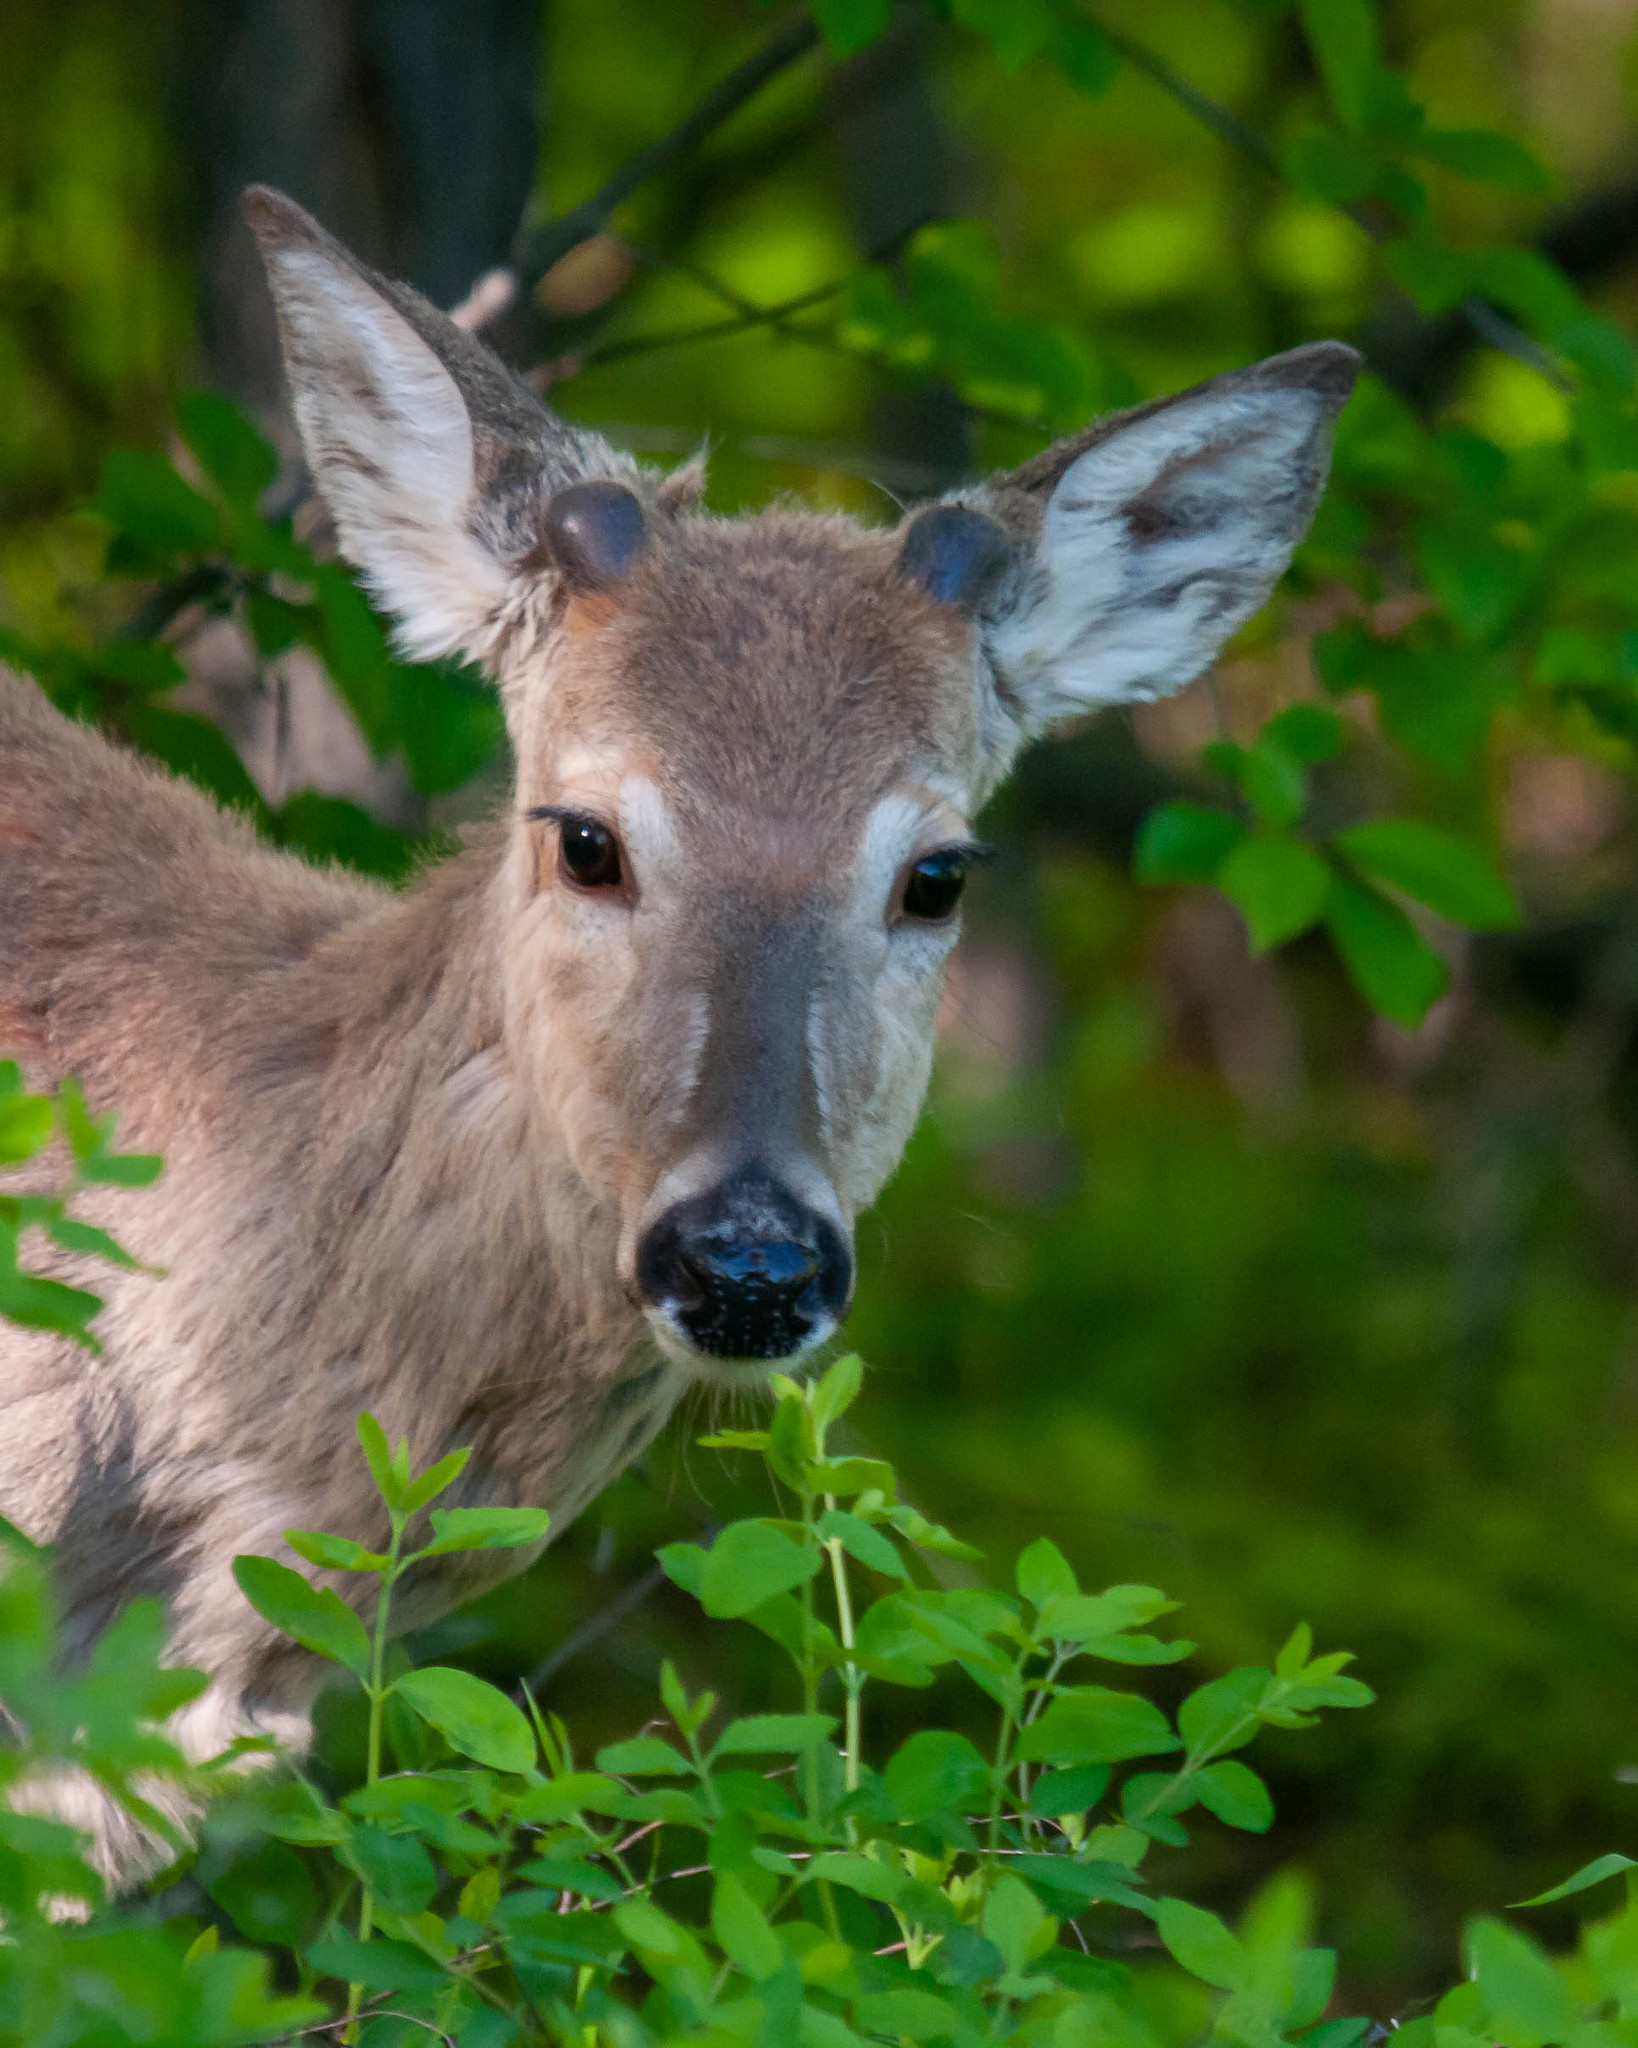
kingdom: Animalia
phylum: Chordata
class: Mammalia
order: Artiodactyla
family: Cervidae
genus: Odocoileus
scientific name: Odocoileus virginianus
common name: White-tailed deer
